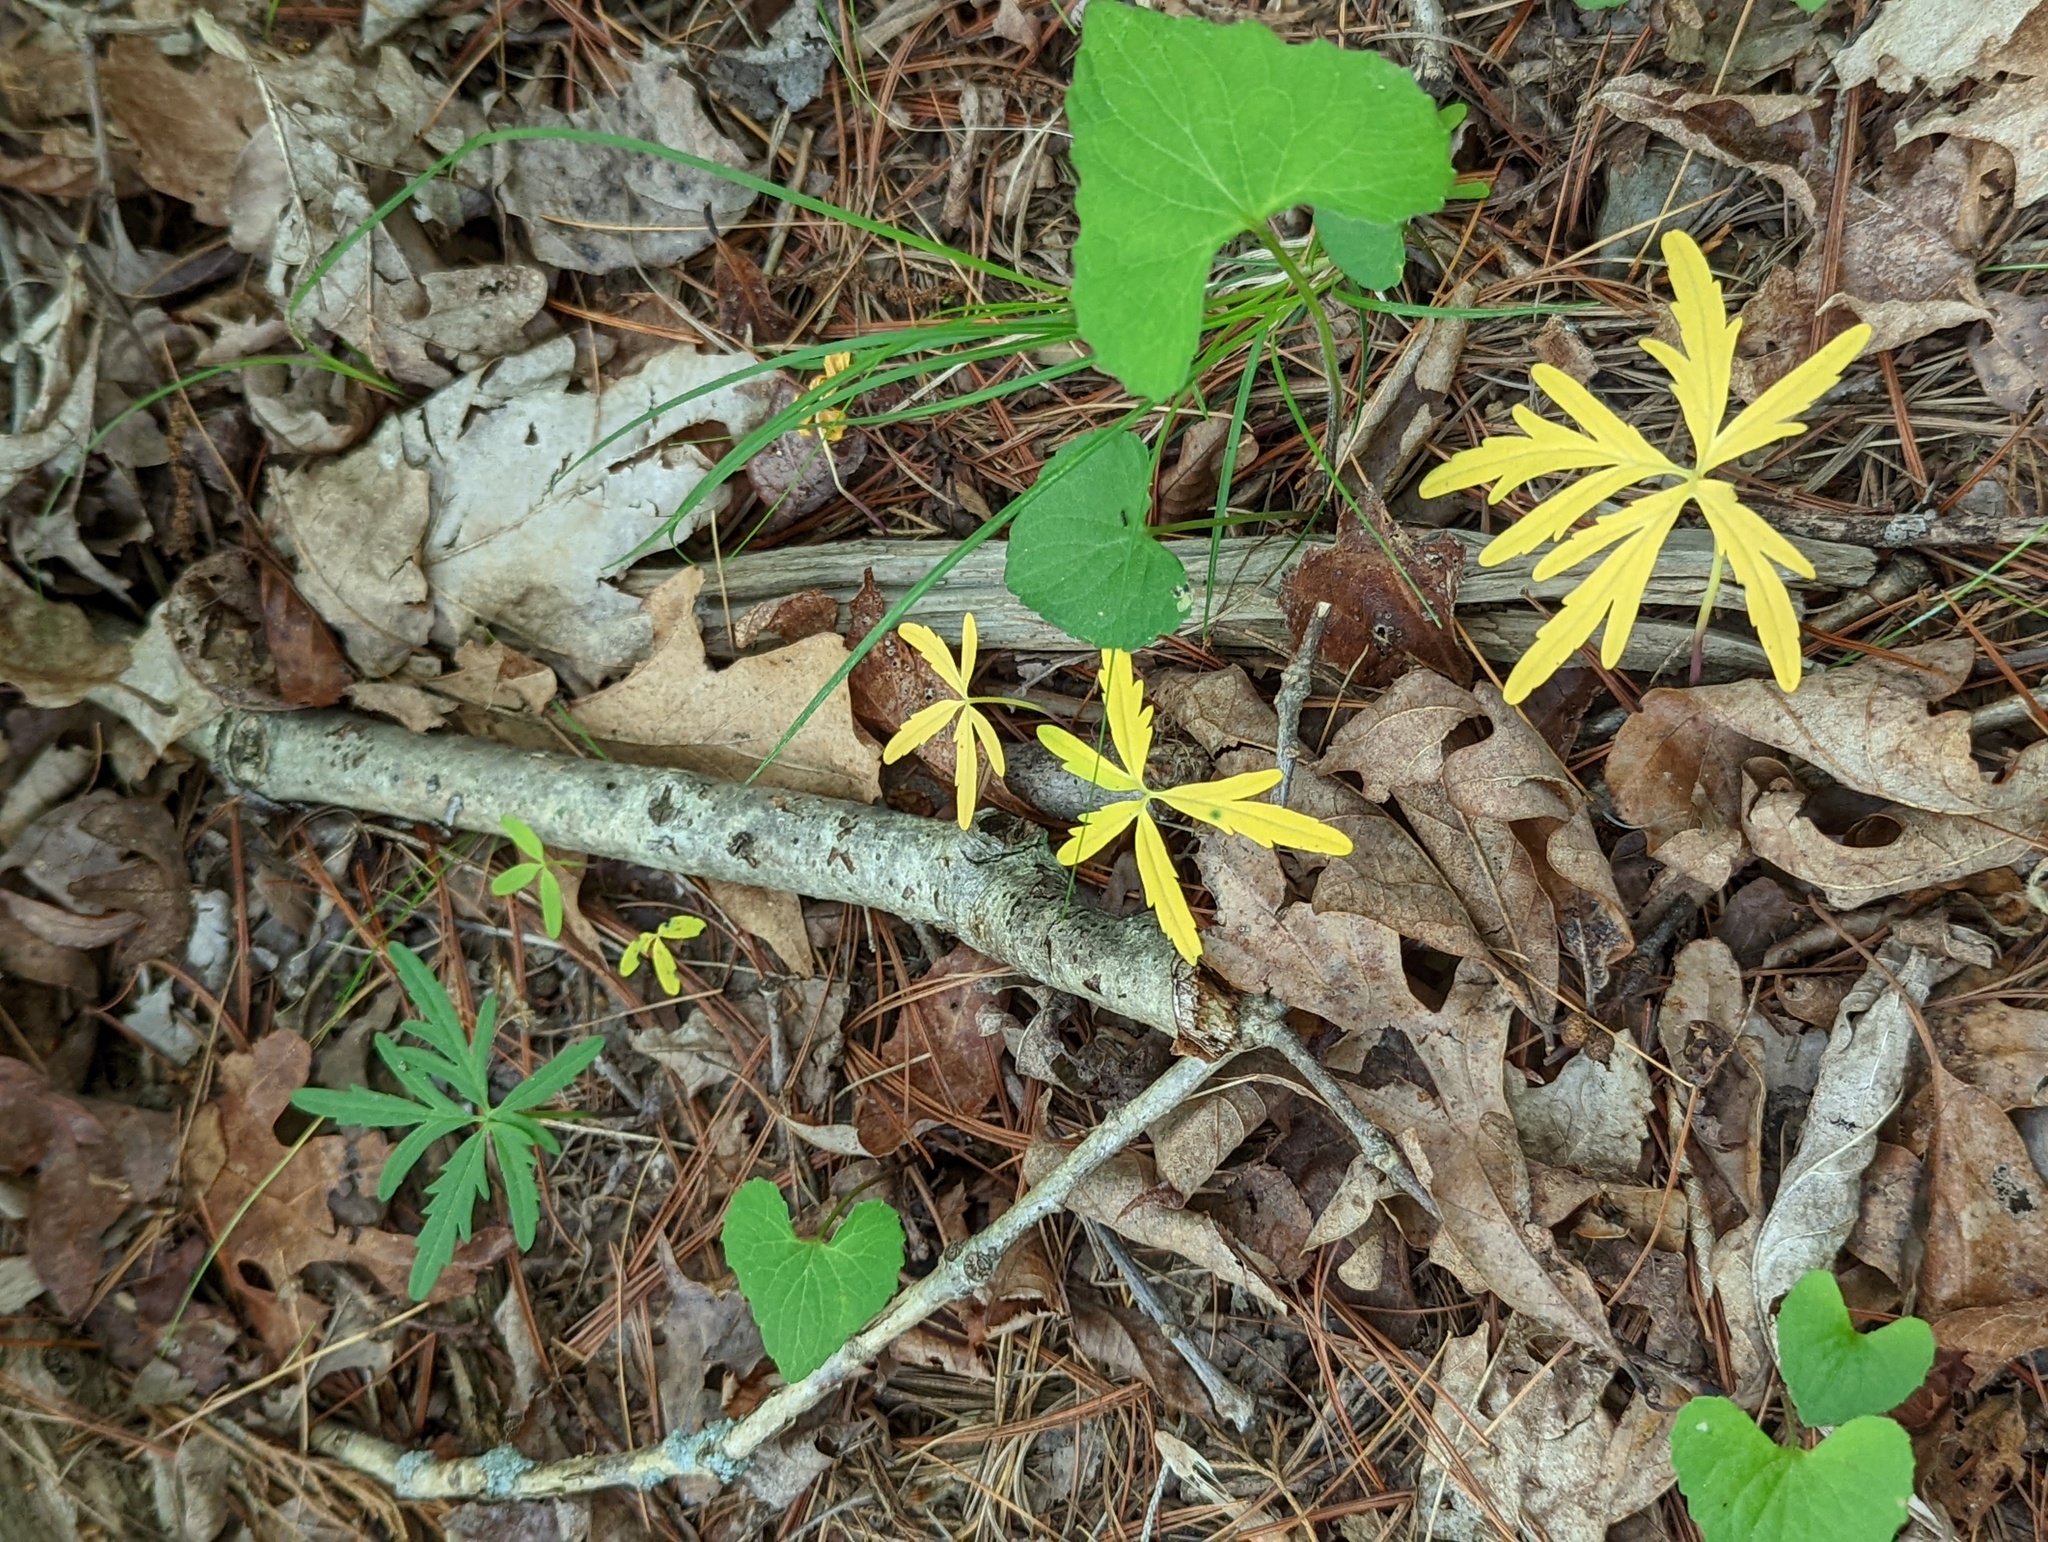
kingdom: Plantae
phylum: Tracheophyta
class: Magnoliopsida
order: Brassicales
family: Brassicaceae
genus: Cardamine
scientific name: Cardamine concatenata
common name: Cut-leaf toothcup
